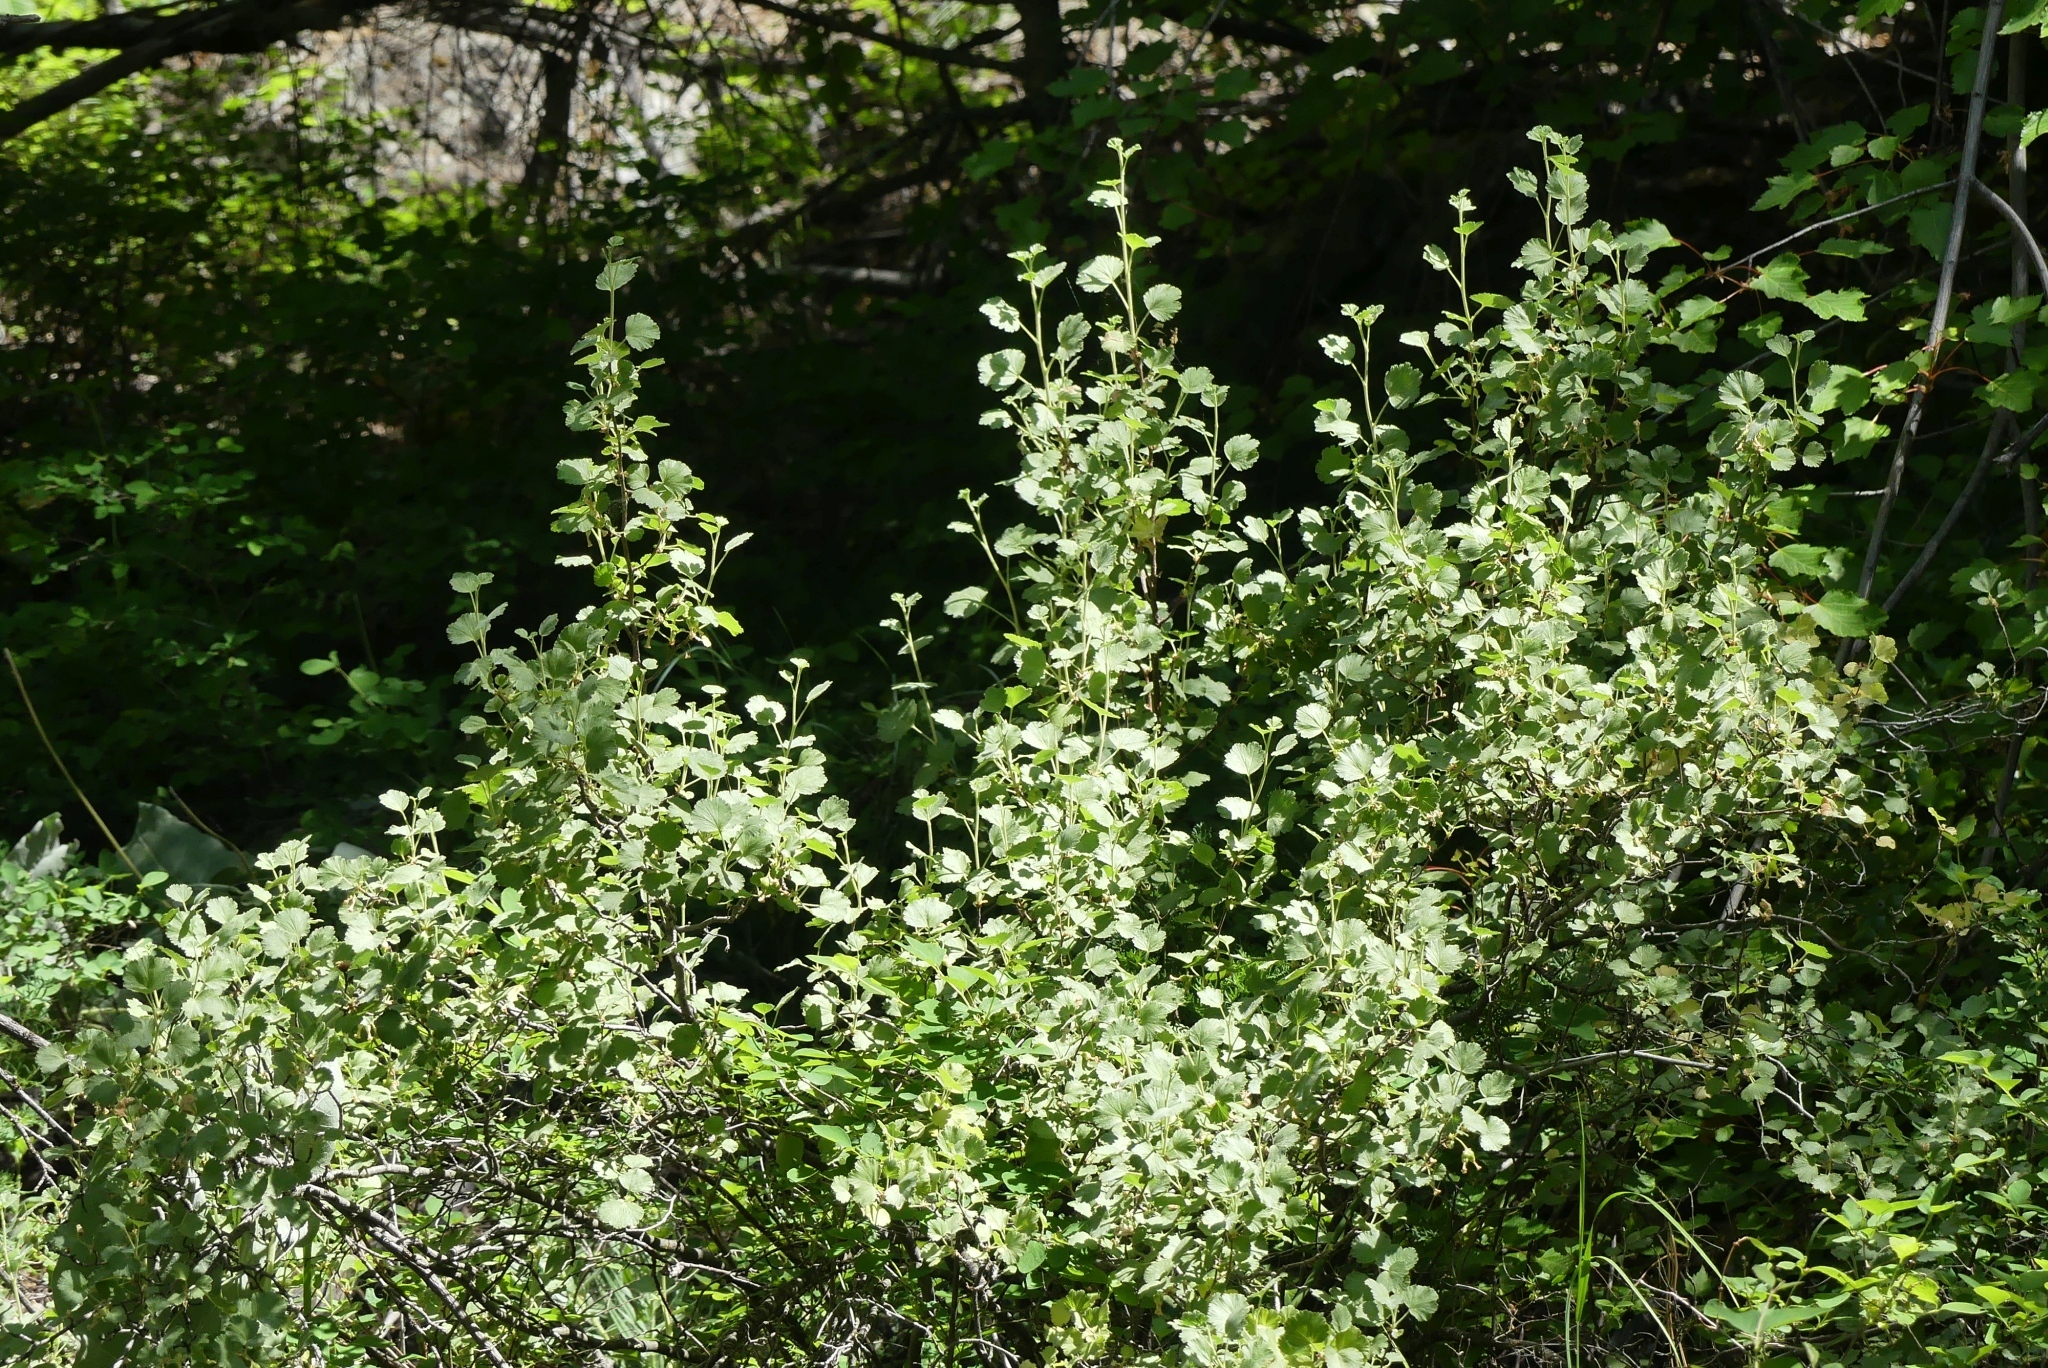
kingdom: Plantae
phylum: Tracheophyta
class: Magnoliopsida
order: Saxifragales
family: Grossulariaceae
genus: Ribes
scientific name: Ribes cereum
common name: Wax currant
